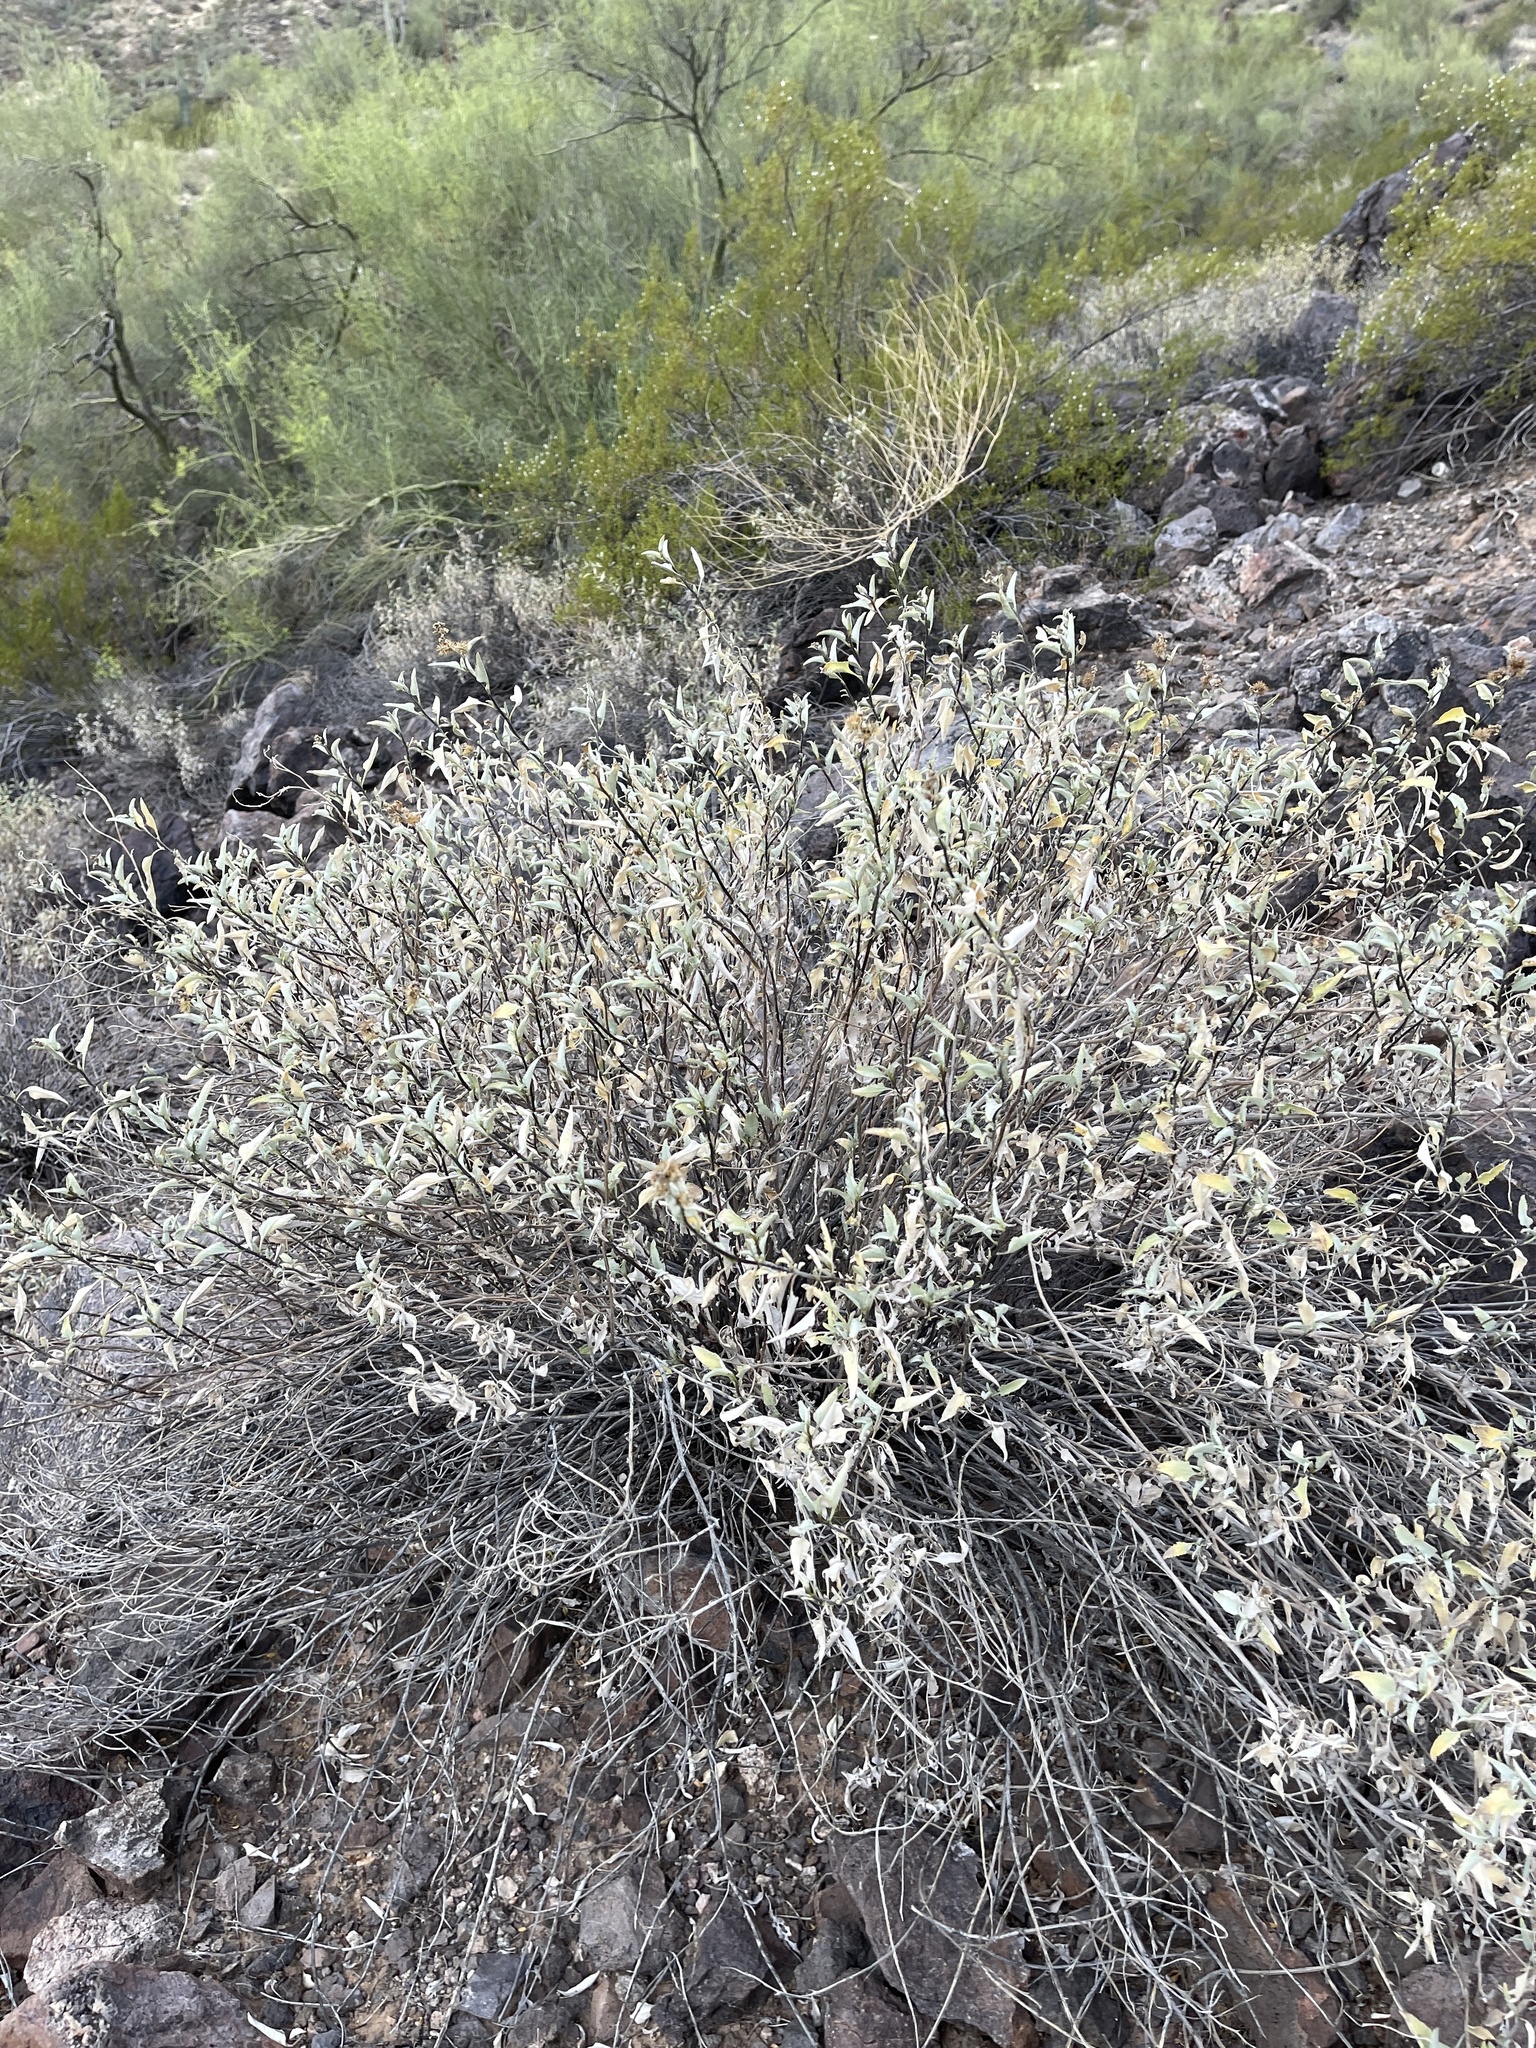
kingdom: Plantae
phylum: Tracheophyta
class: Magnoliopsida
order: Asterales
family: Asteraceae
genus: Ambrosia
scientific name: Ambrosia deltoidea
